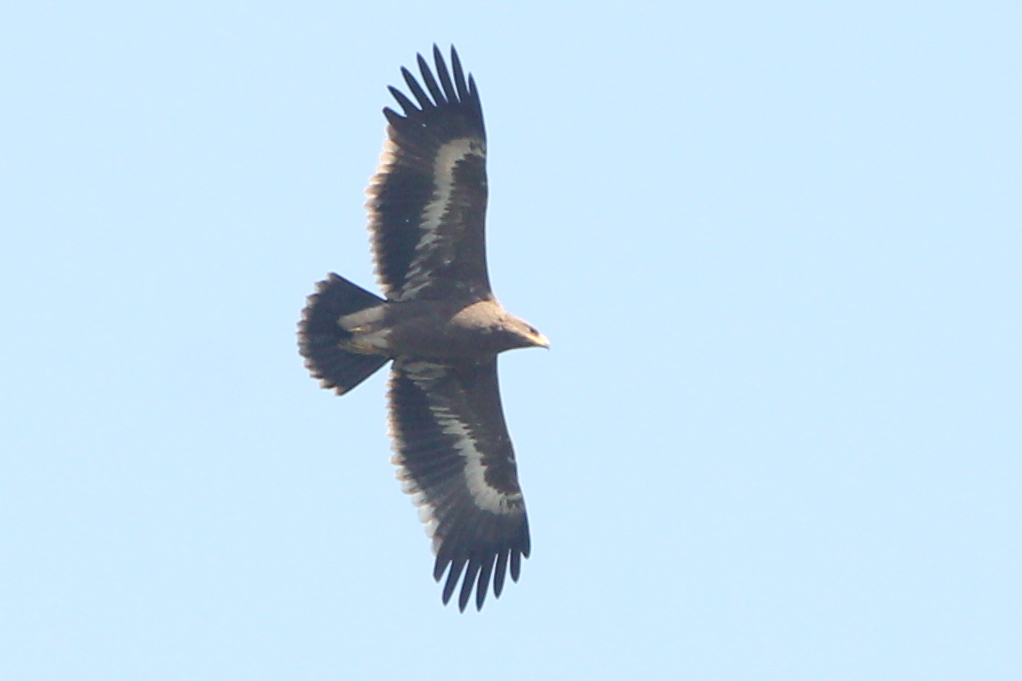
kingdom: Animalia
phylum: Chordata
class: Aves
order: Accipitriformes
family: Accipitridae
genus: Aquila
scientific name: Aquila nipalensis
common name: Steppe eagle
